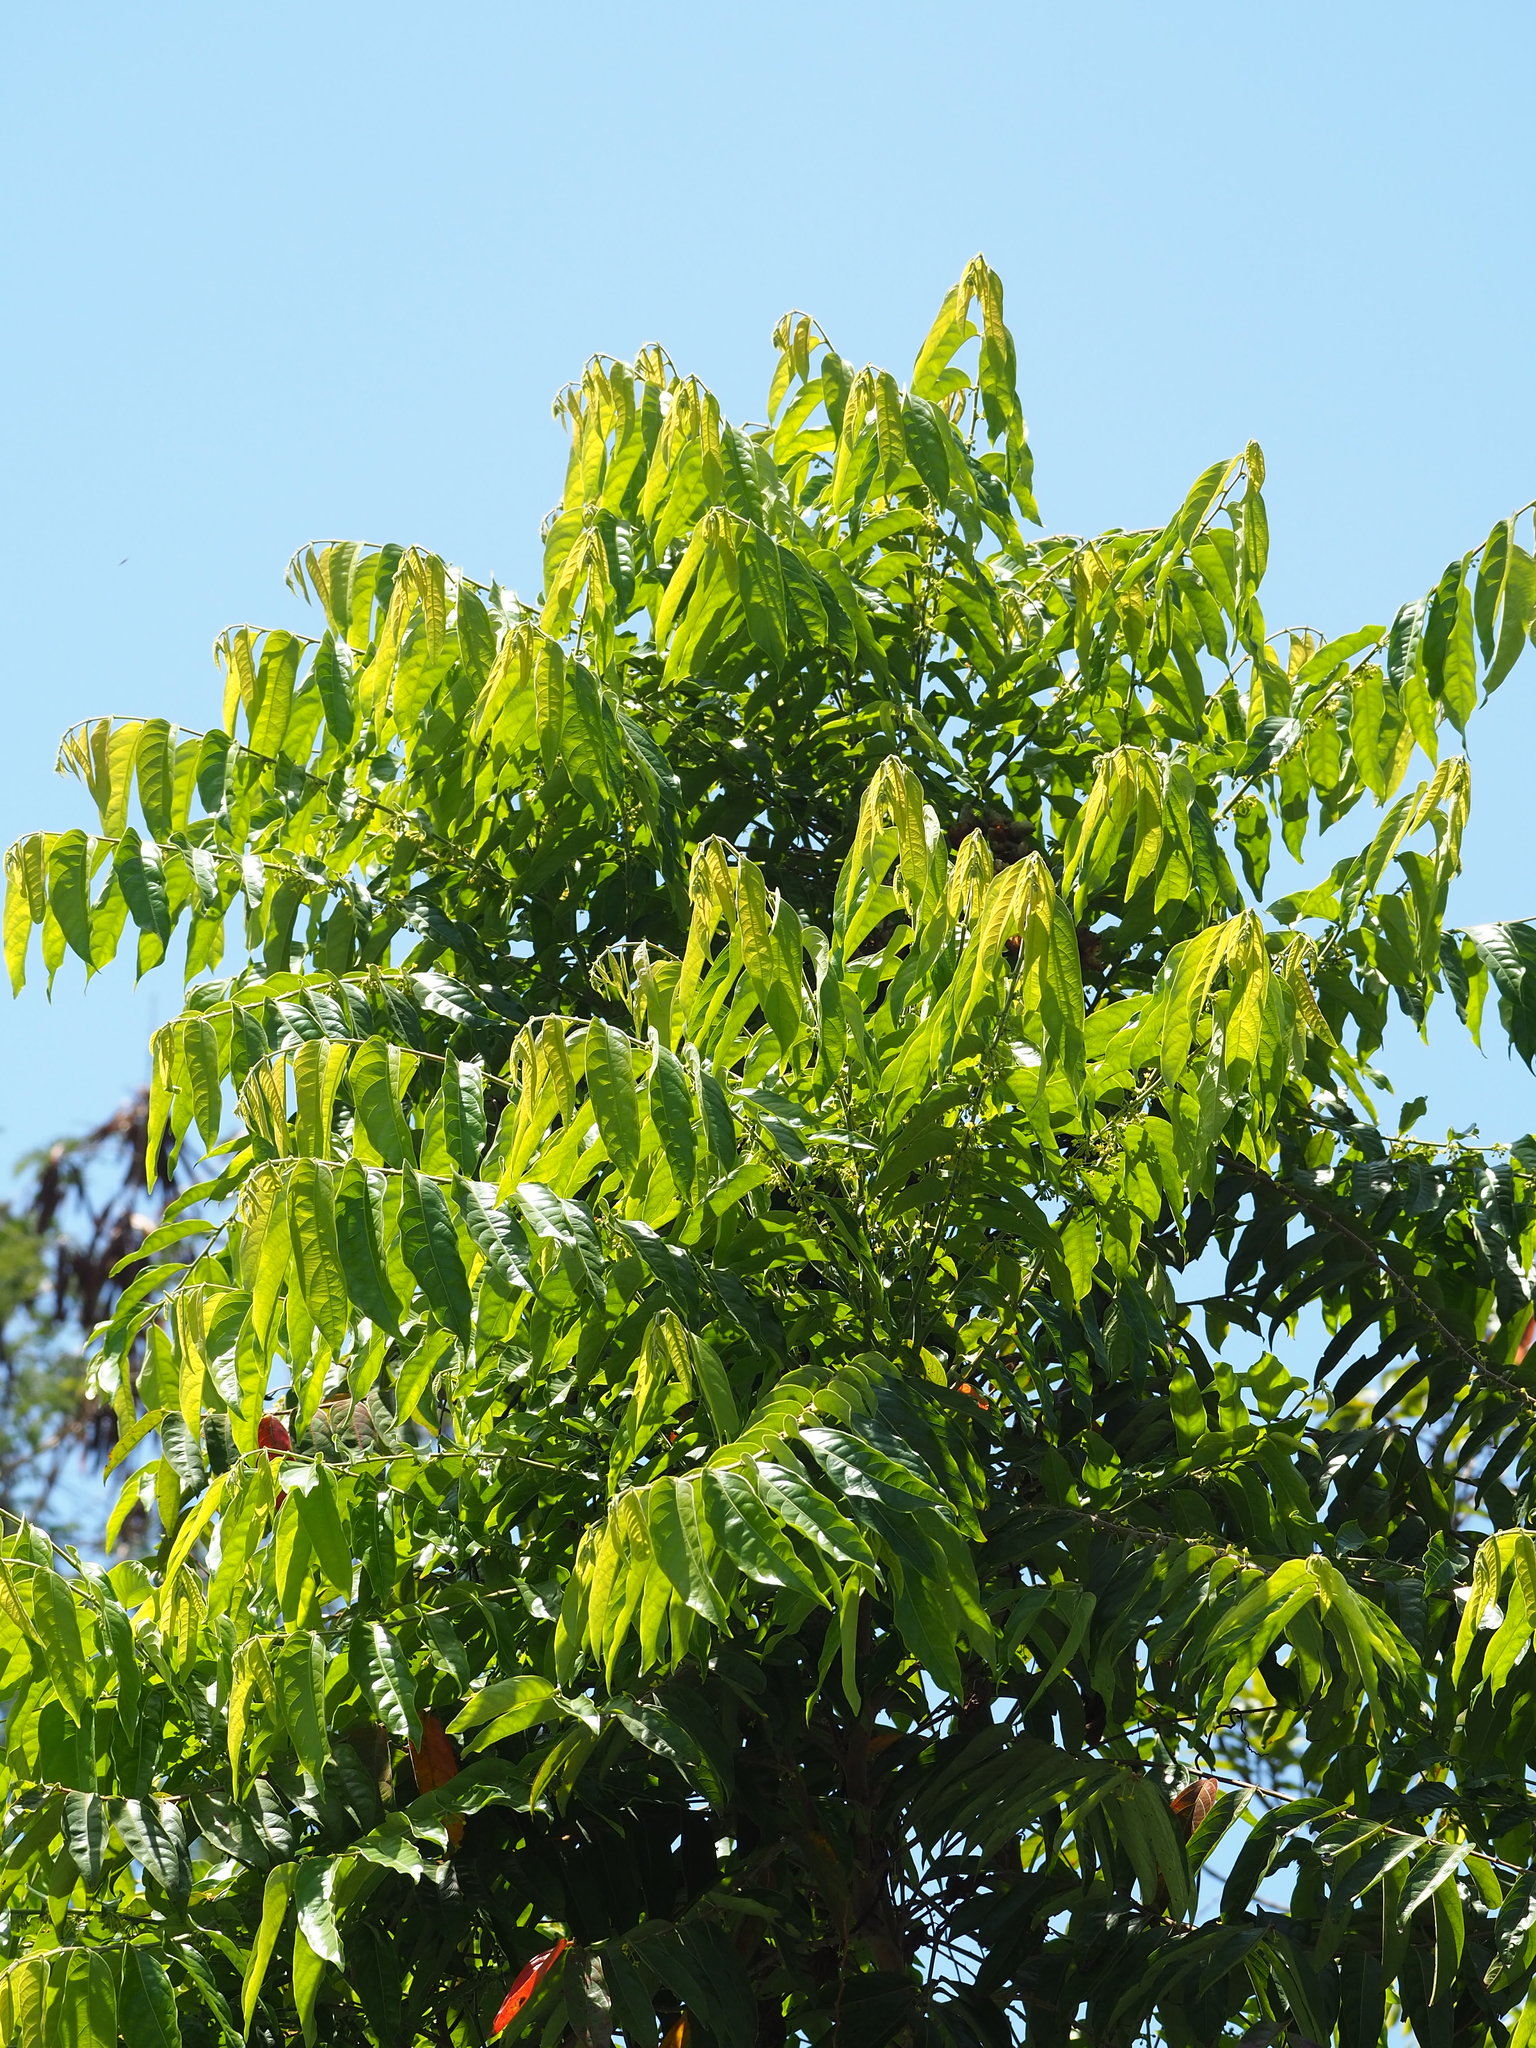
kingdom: Plantae
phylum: Tracheophyta
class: Magnoliopsida
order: Malpighiales
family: Phyllanthaceae
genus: Glochidion
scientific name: Glochidion philippicum
